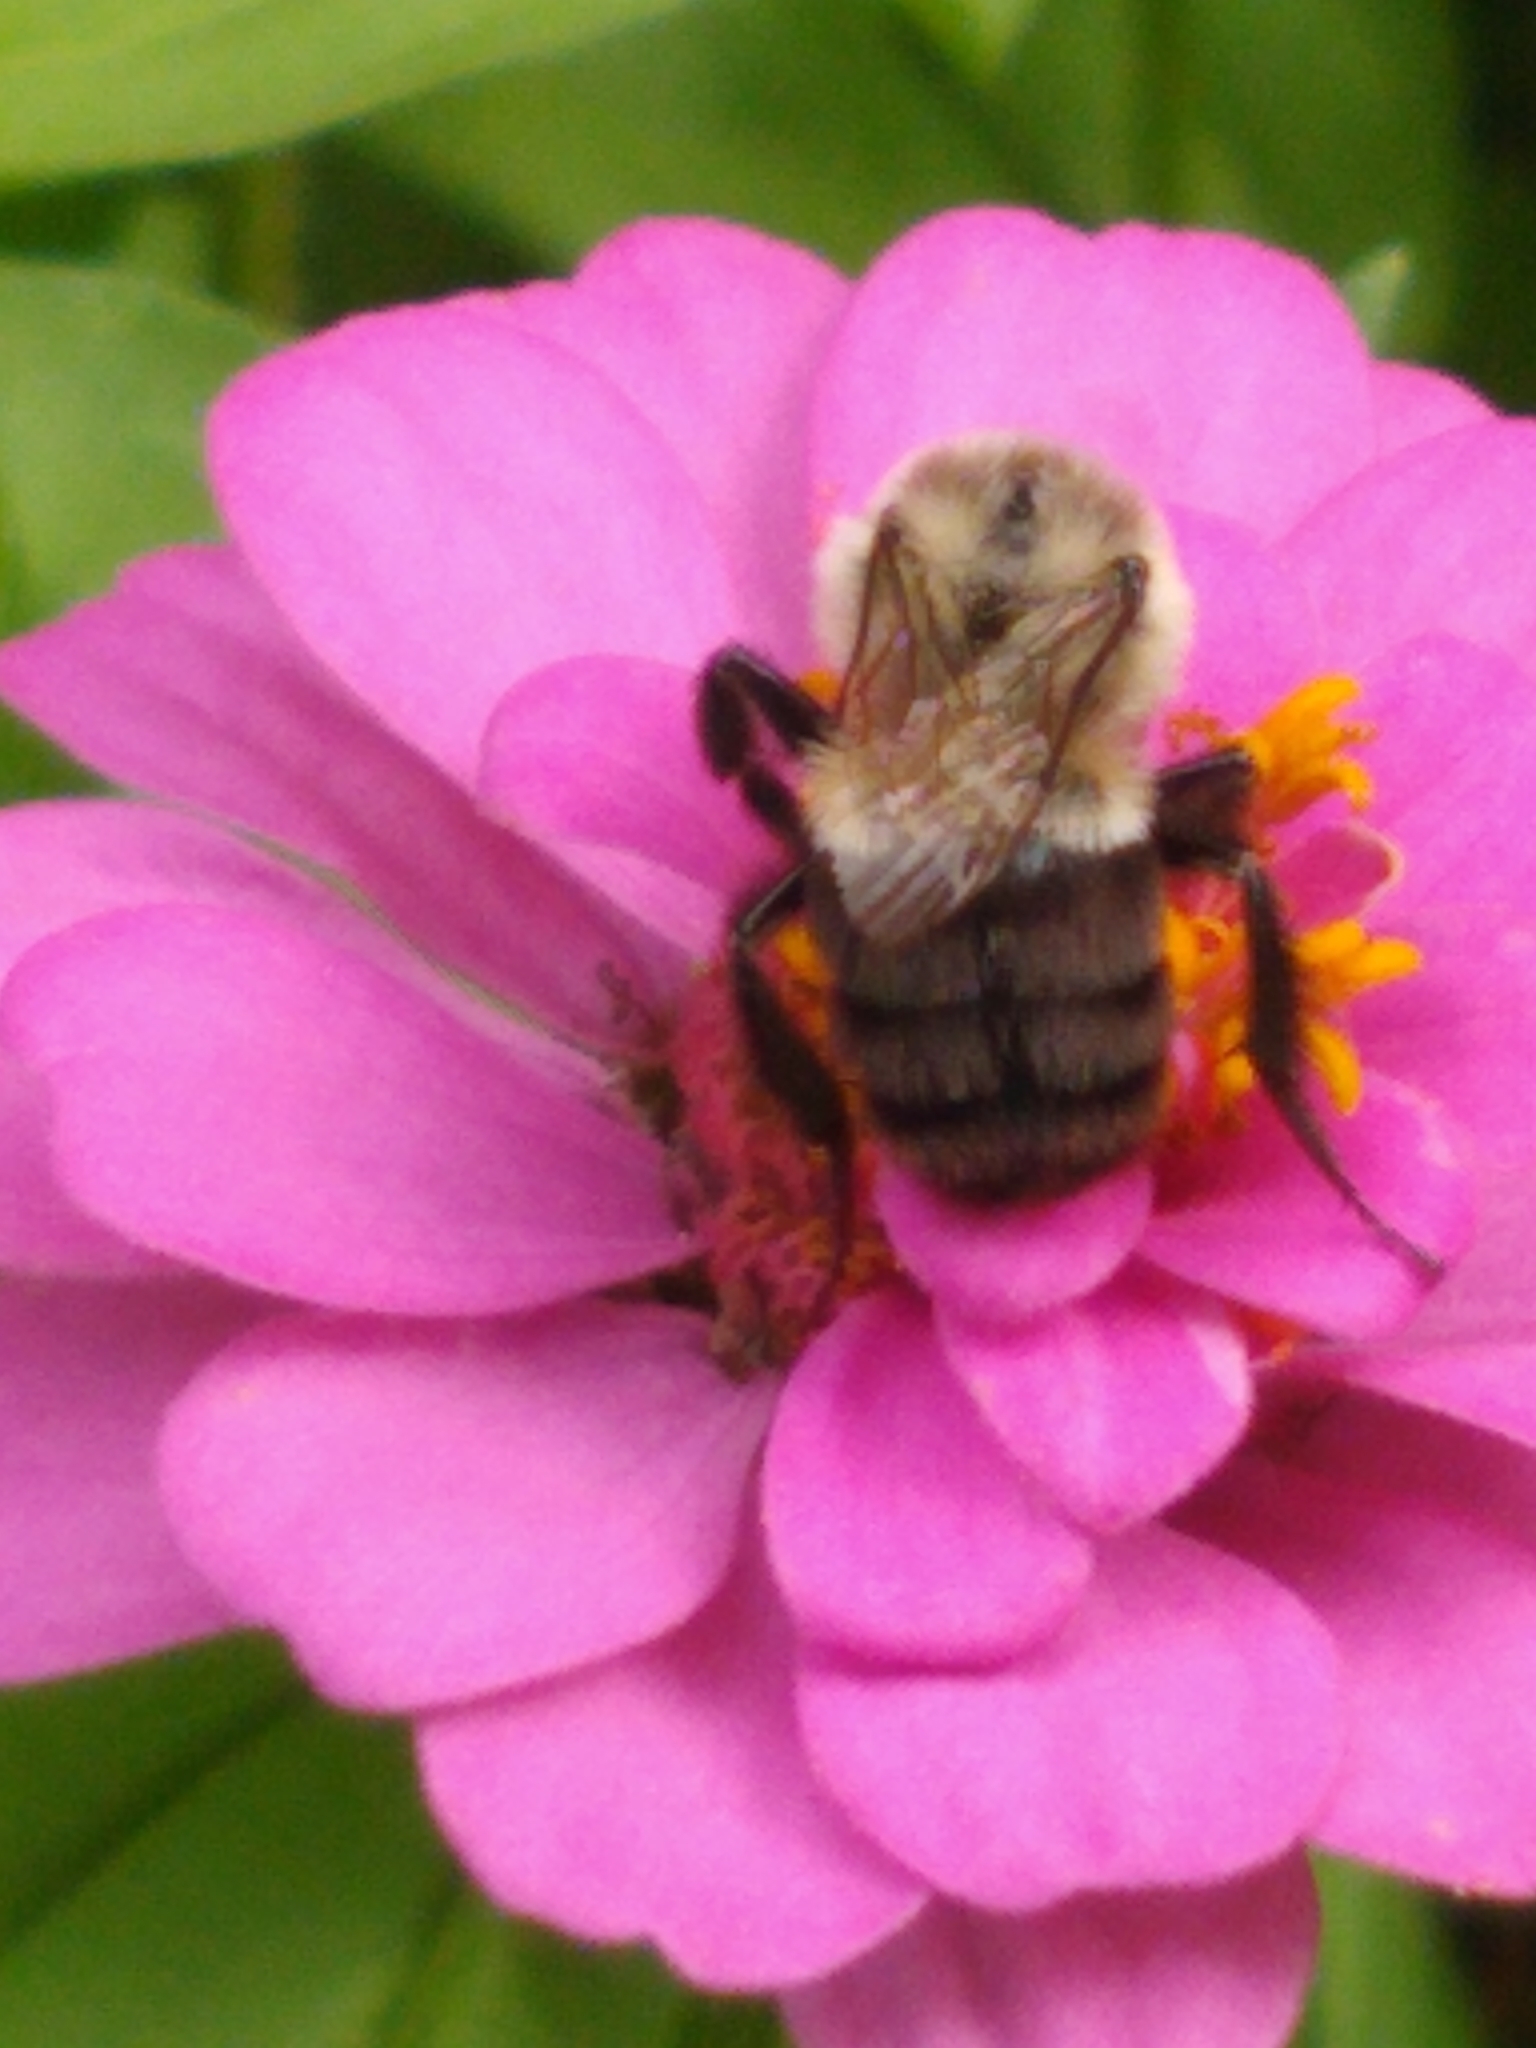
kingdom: Animalia
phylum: Arthropoda
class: Insecta
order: Hymenoptera
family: Apidae
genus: Bombus
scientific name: Bombus impatiens
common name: Common eastern bumble bee
